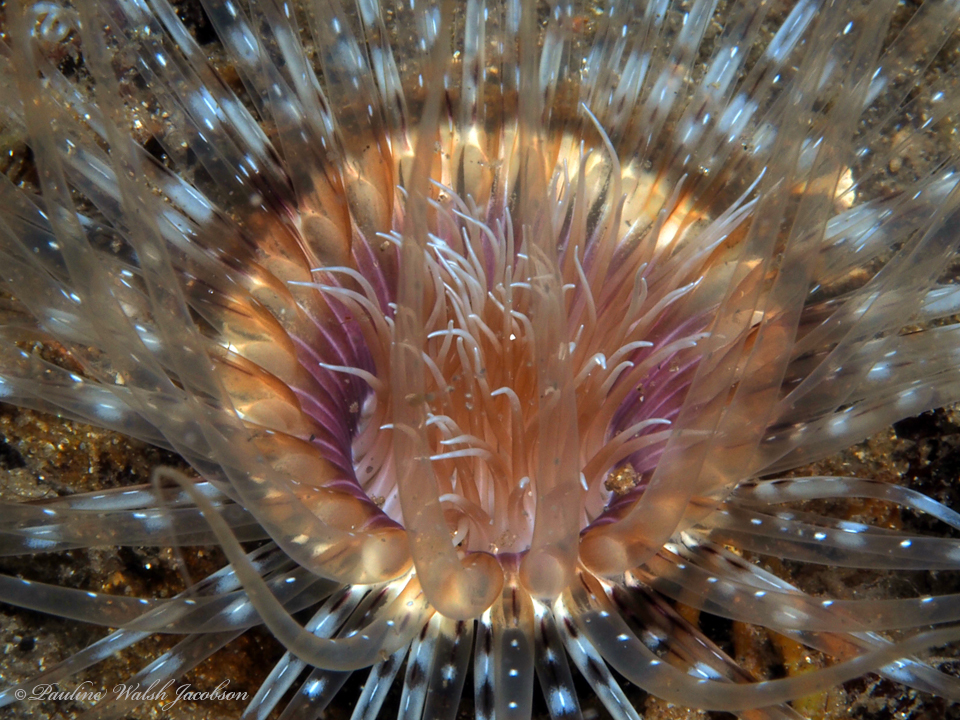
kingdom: Animalia
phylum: Cnidaria
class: Anthozoa
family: Cerianthidae
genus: Ceriantheopsis
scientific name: Ceriantheopsis americana
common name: American tube-dwelling anemone
